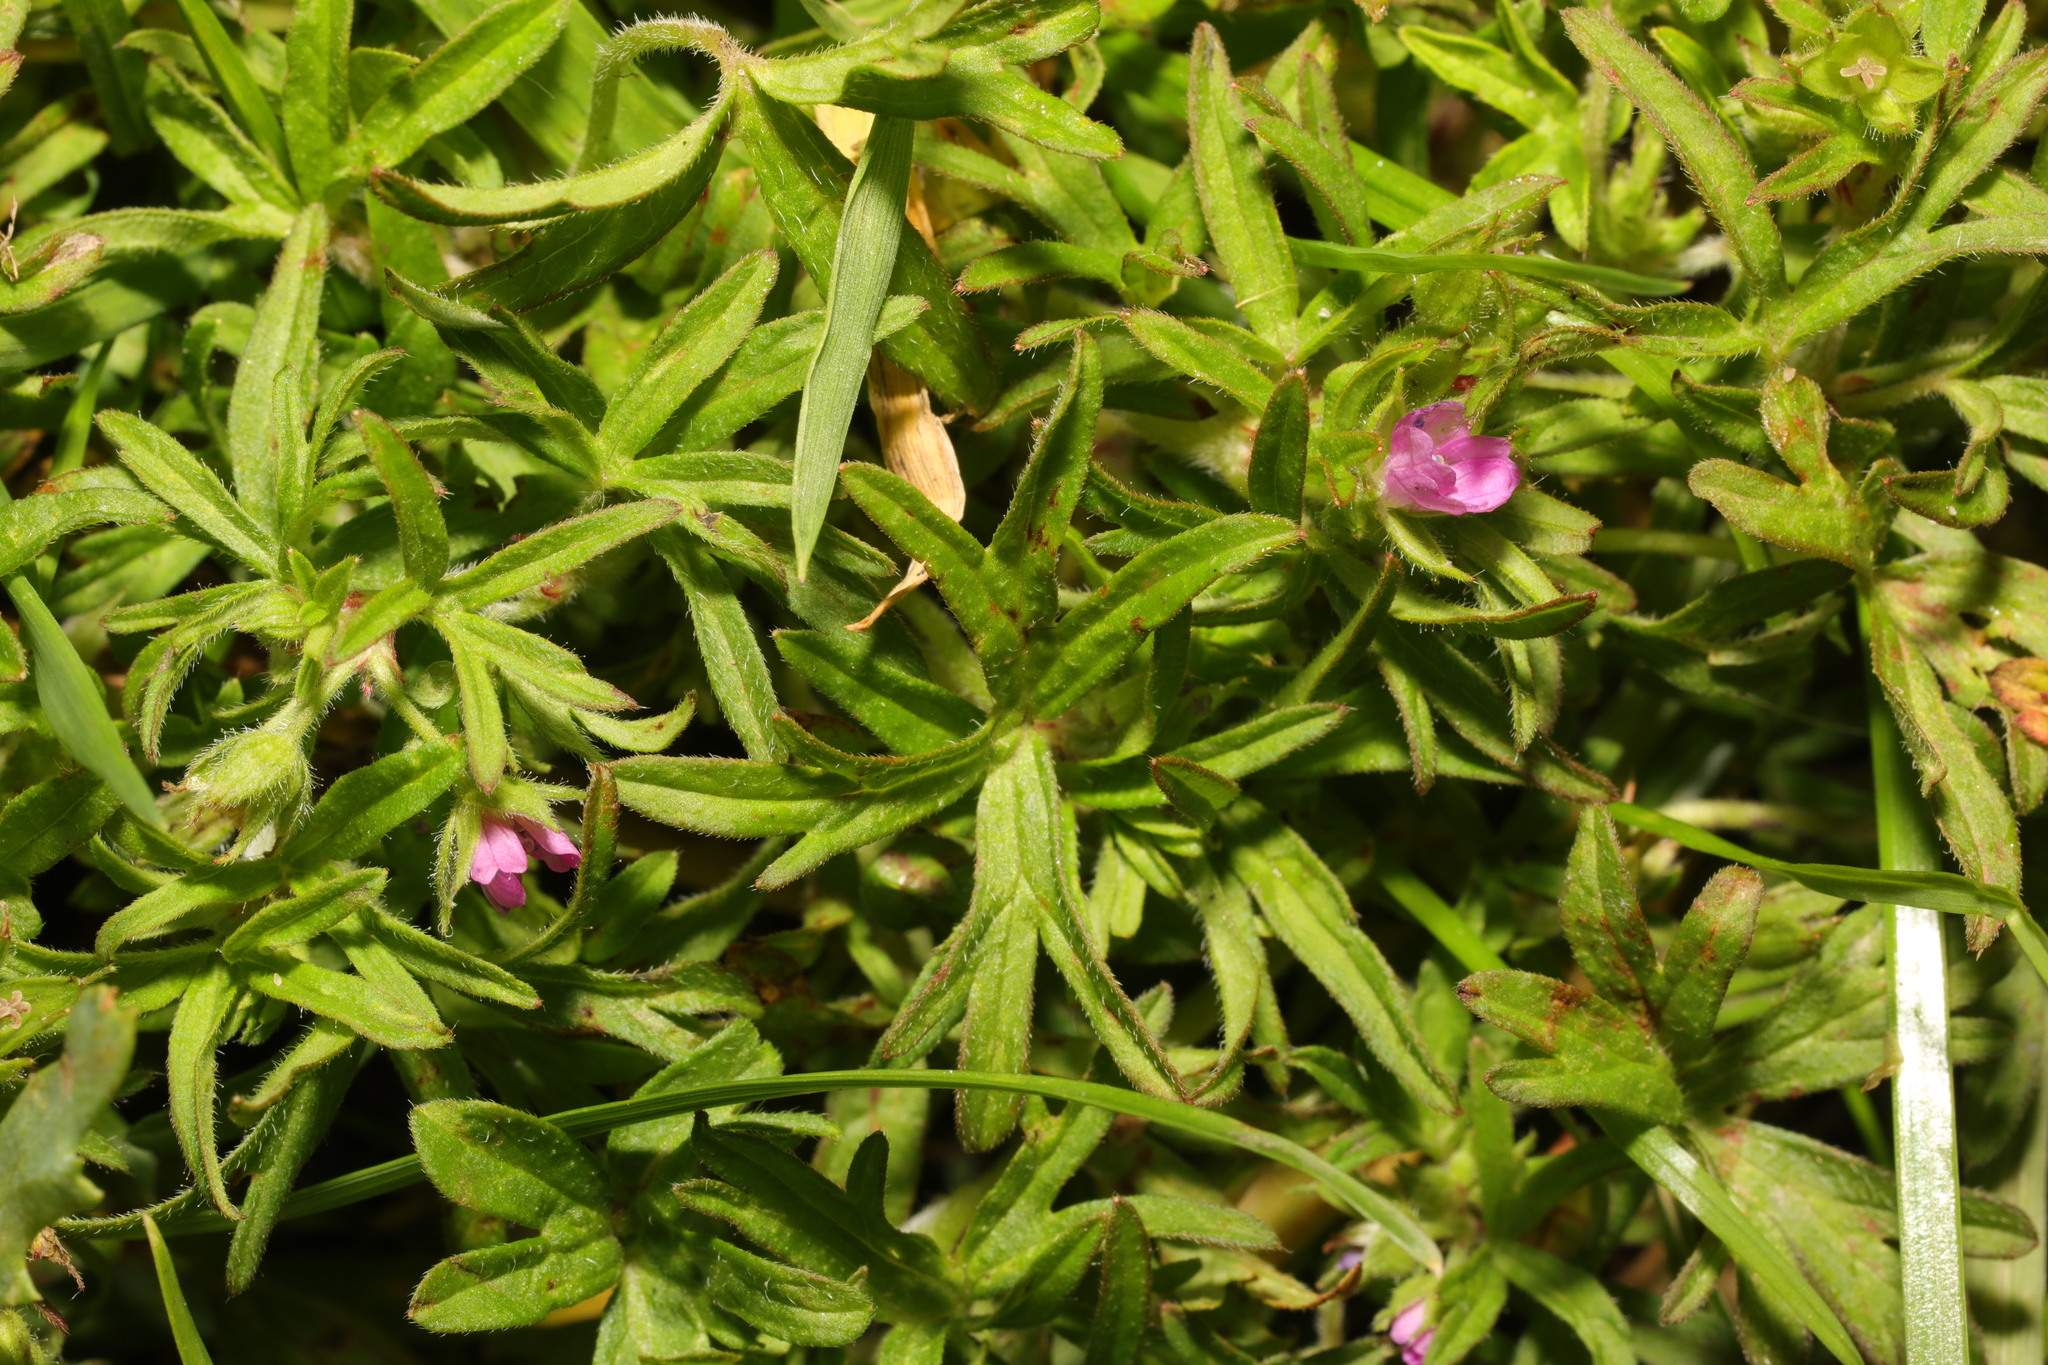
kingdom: Plantae
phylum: Tracheophyta
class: Magnoliopsida
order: Geraniales
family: Geraniaceae
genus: Geranium
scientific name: Geranium dissectum
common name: Cut-leaved crane's-bill
